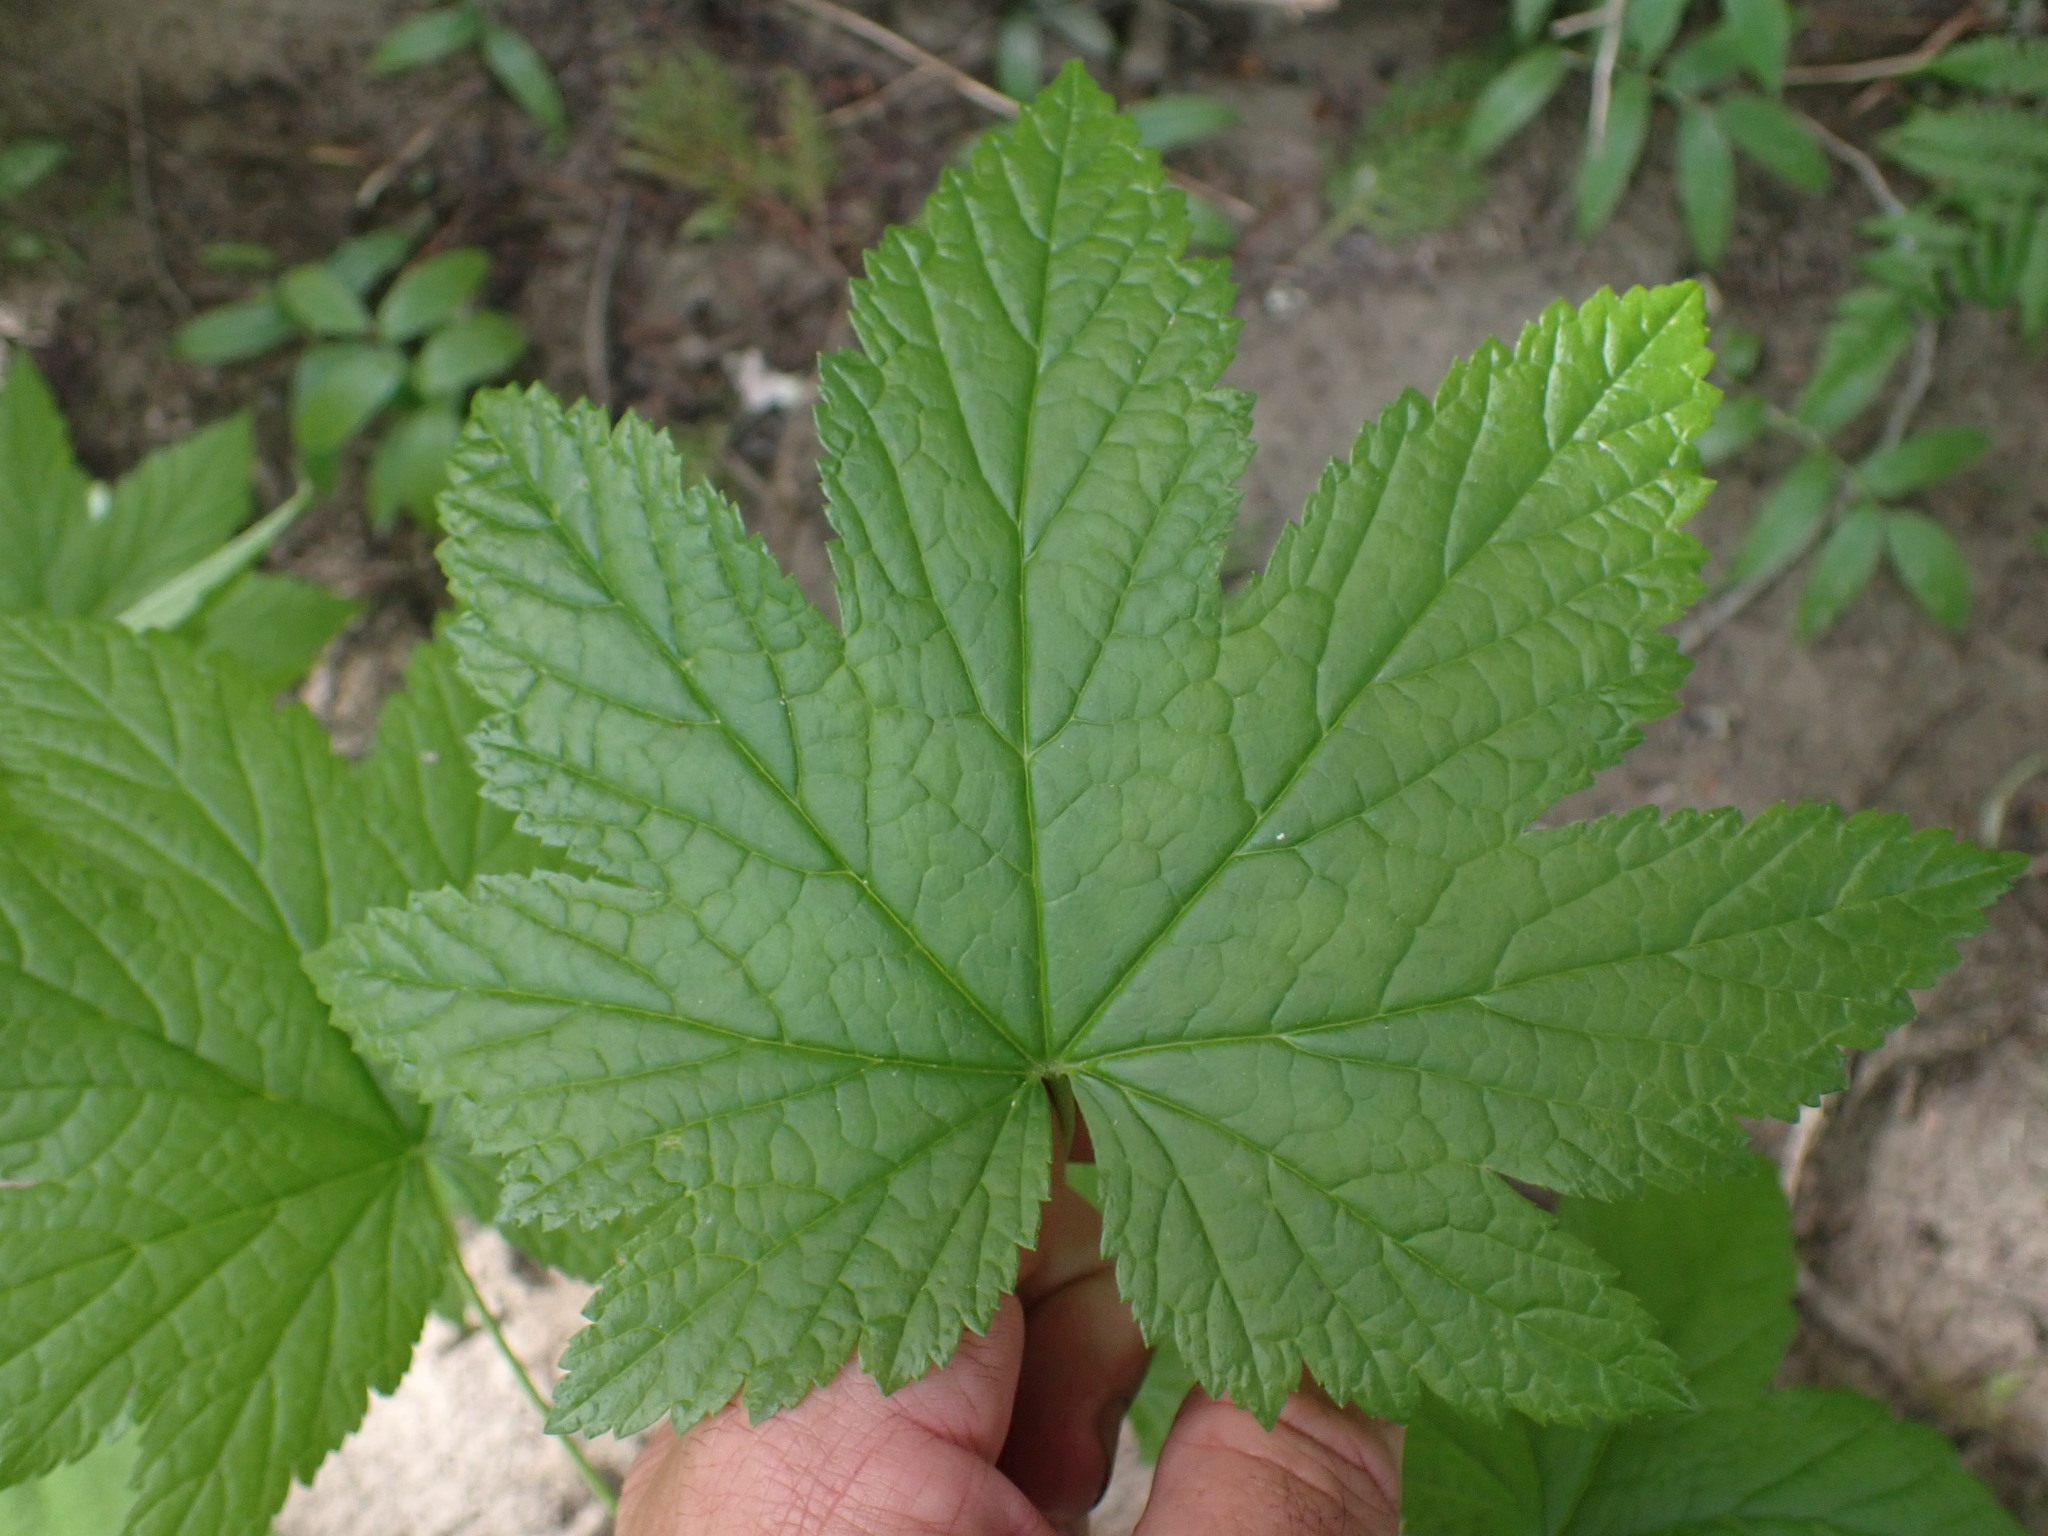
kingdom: Plantae
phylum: Tracheophyta
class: Magnoliopsida
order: Saxifragales
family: Grossulariaceae
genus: Ribes
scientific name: Ribes bracteosum
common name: California black currant
